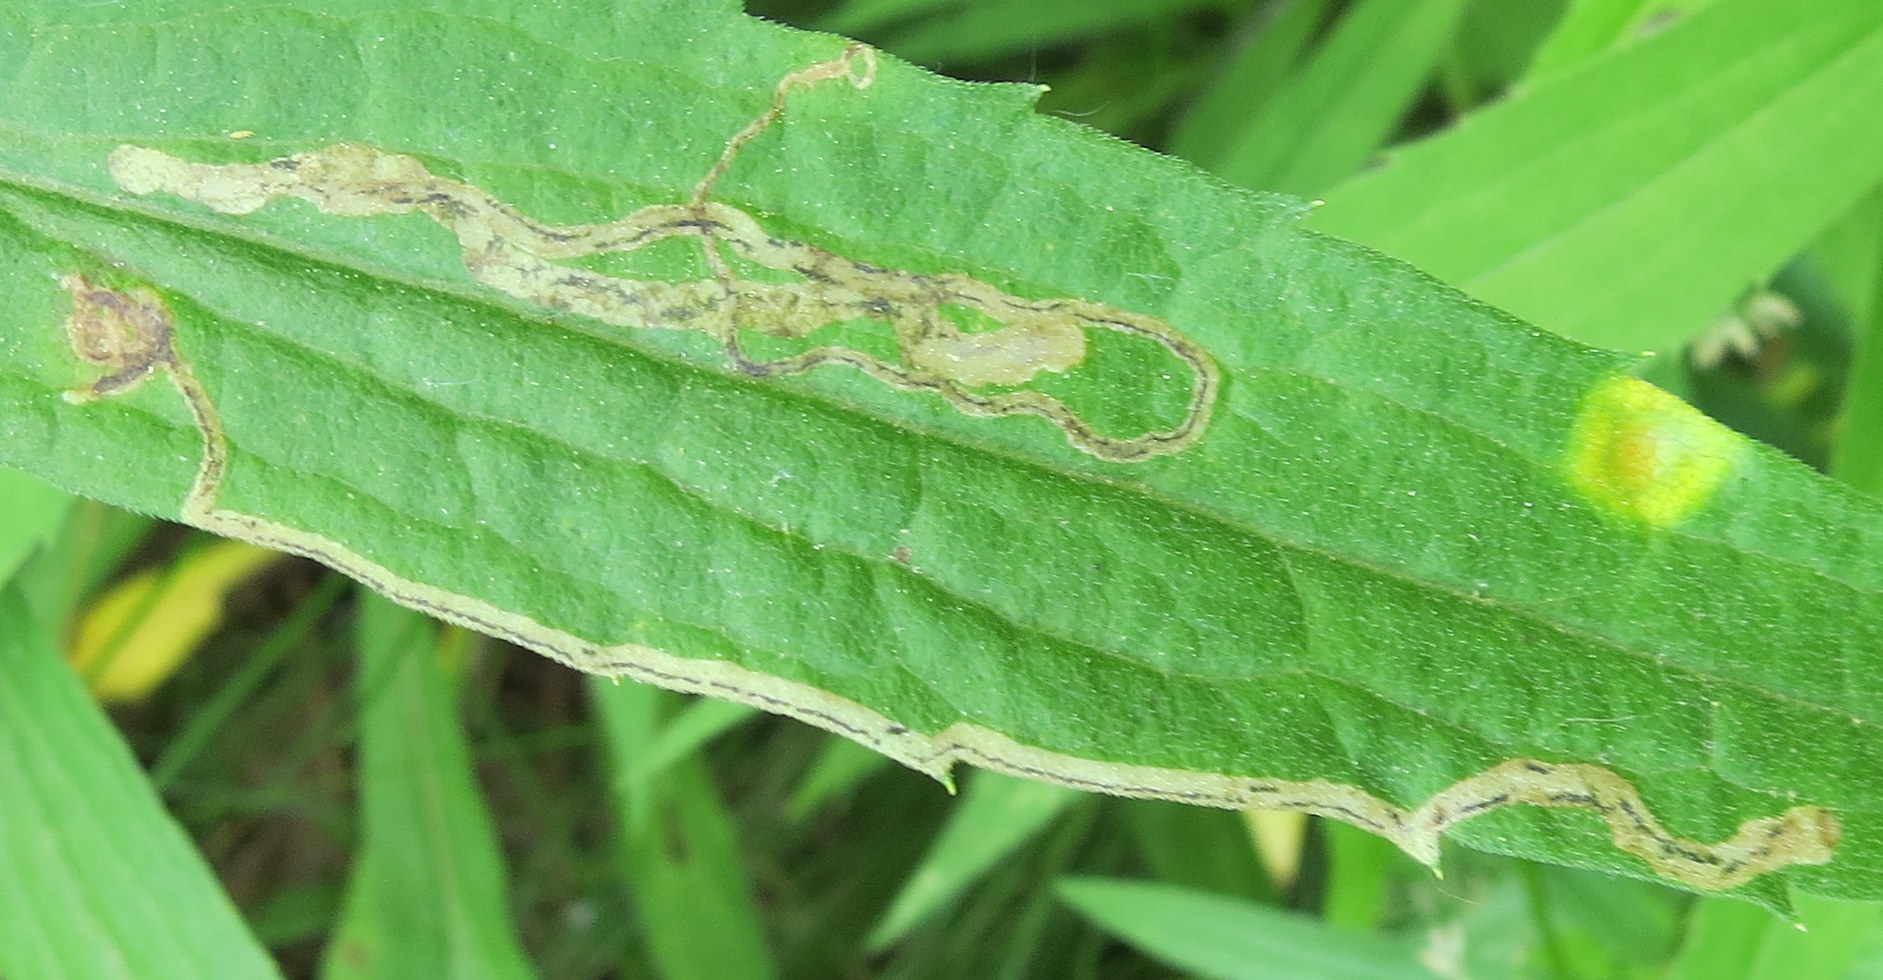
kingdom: Animalia
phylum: Arthropoda
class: Insecta
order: Diptera
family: Agromyzidae
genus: Liriomyza
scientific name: Liriomyza eupatorii
